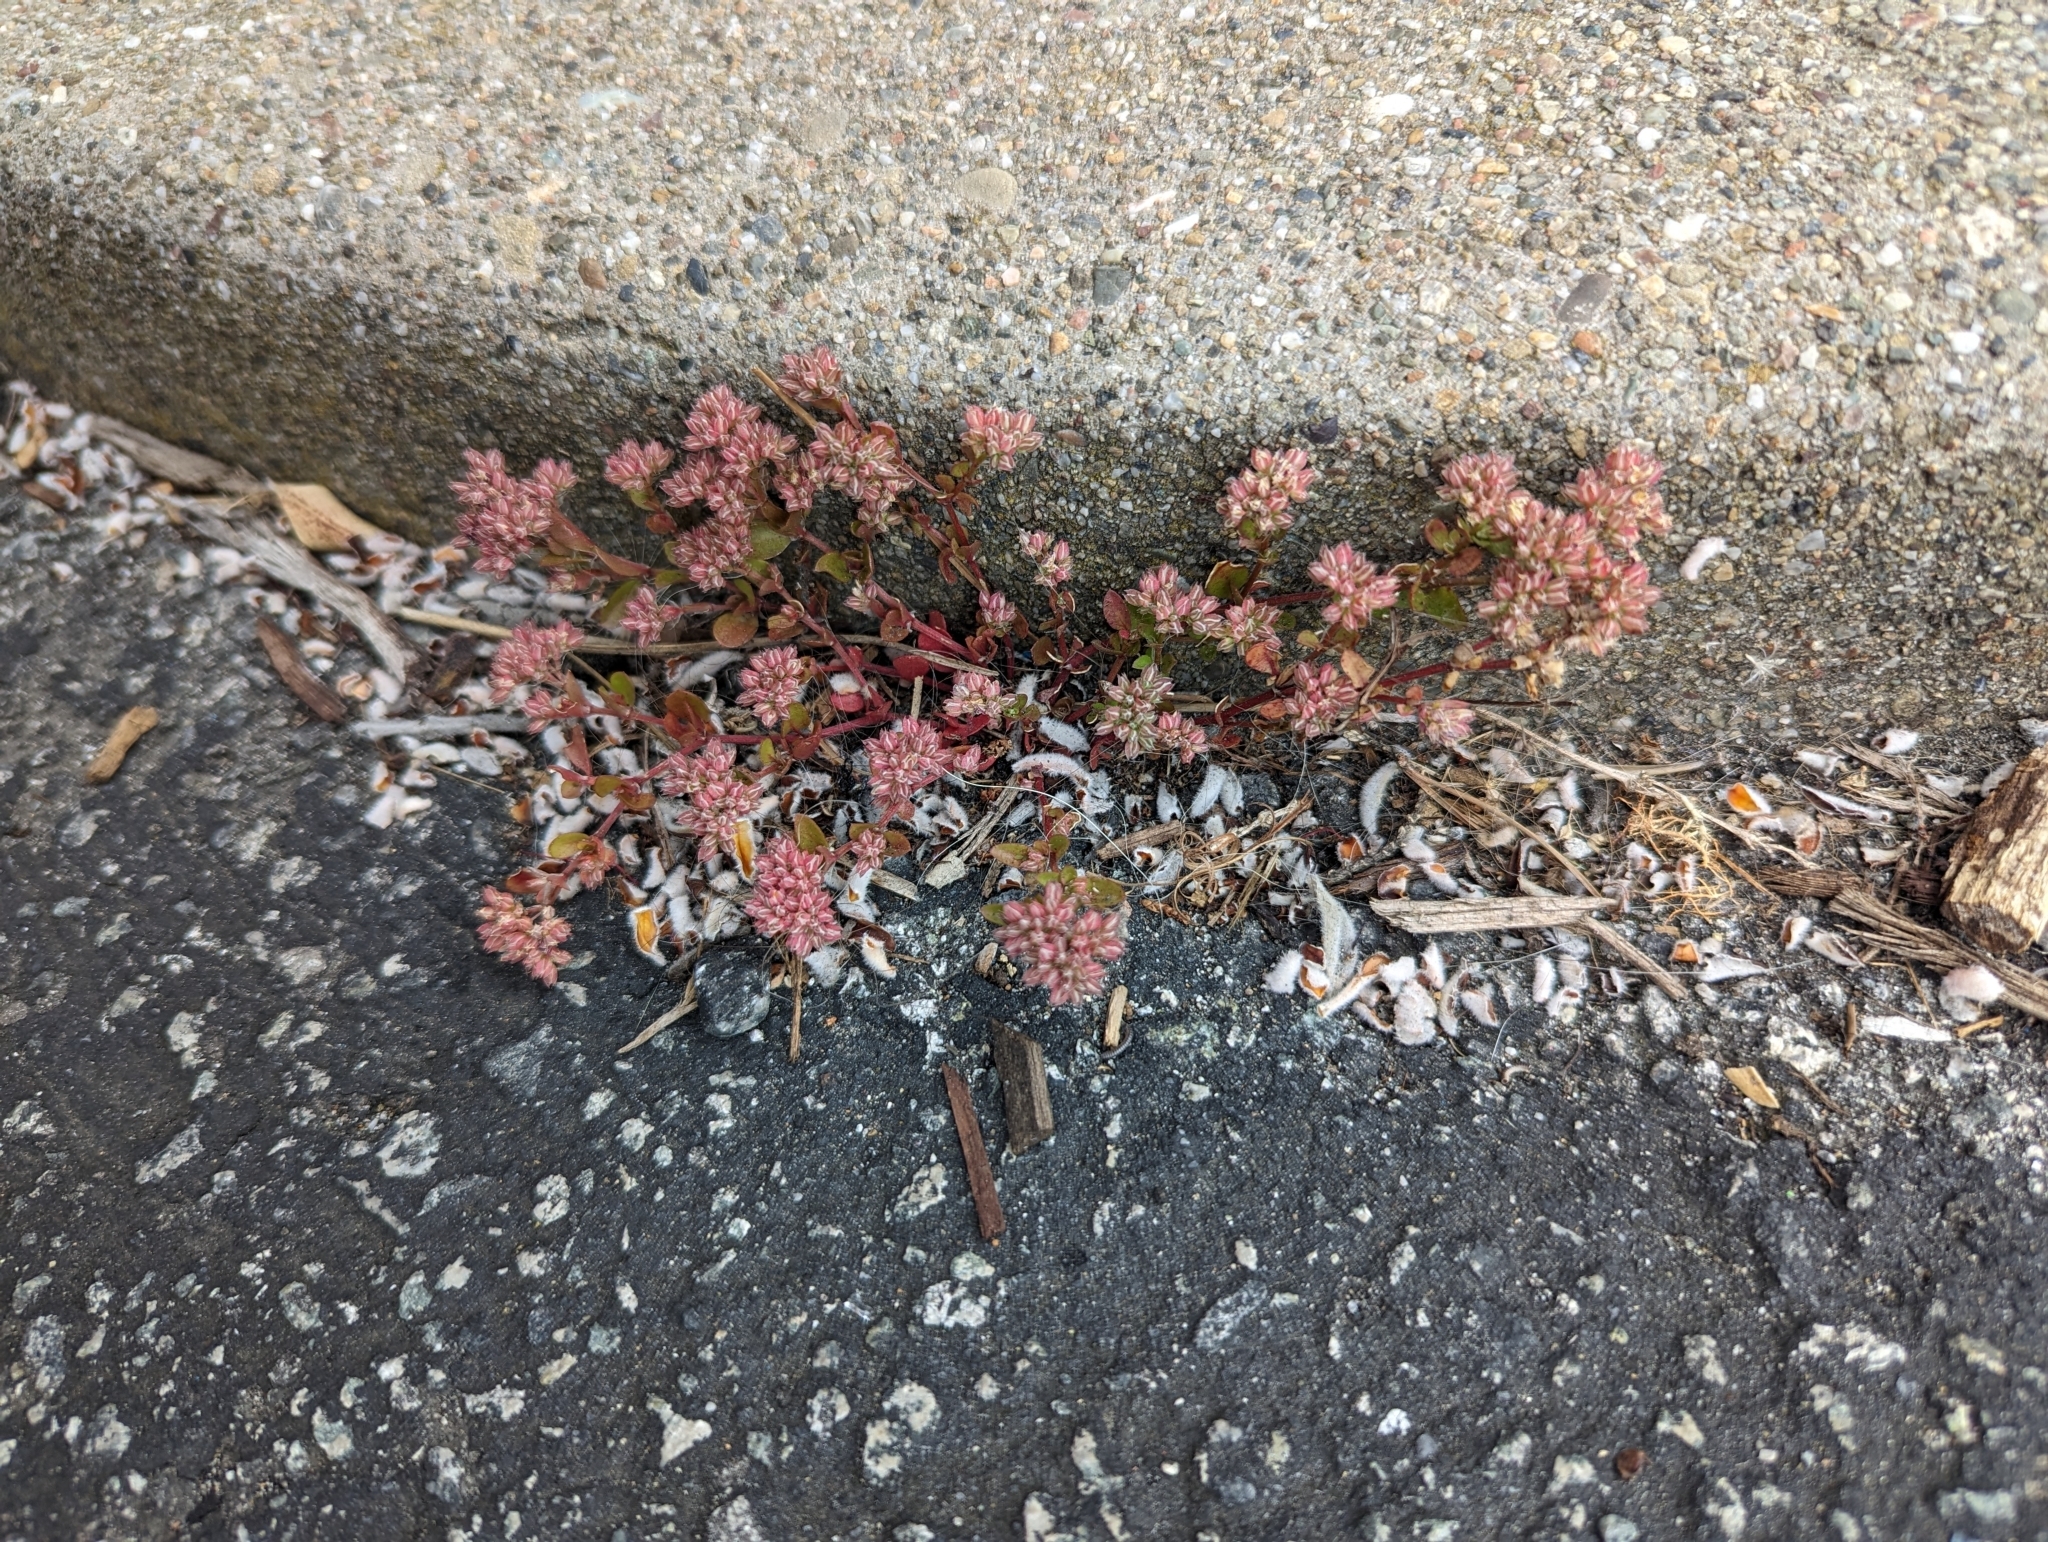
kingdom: Plantae
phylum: Tracheophyta
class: Magnoliopsida
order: Caryophyllales
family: Caryophyllaceae
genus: Polycarpon
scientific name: Polycarpon tetraphyllum
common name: Four-leaved all-seed
